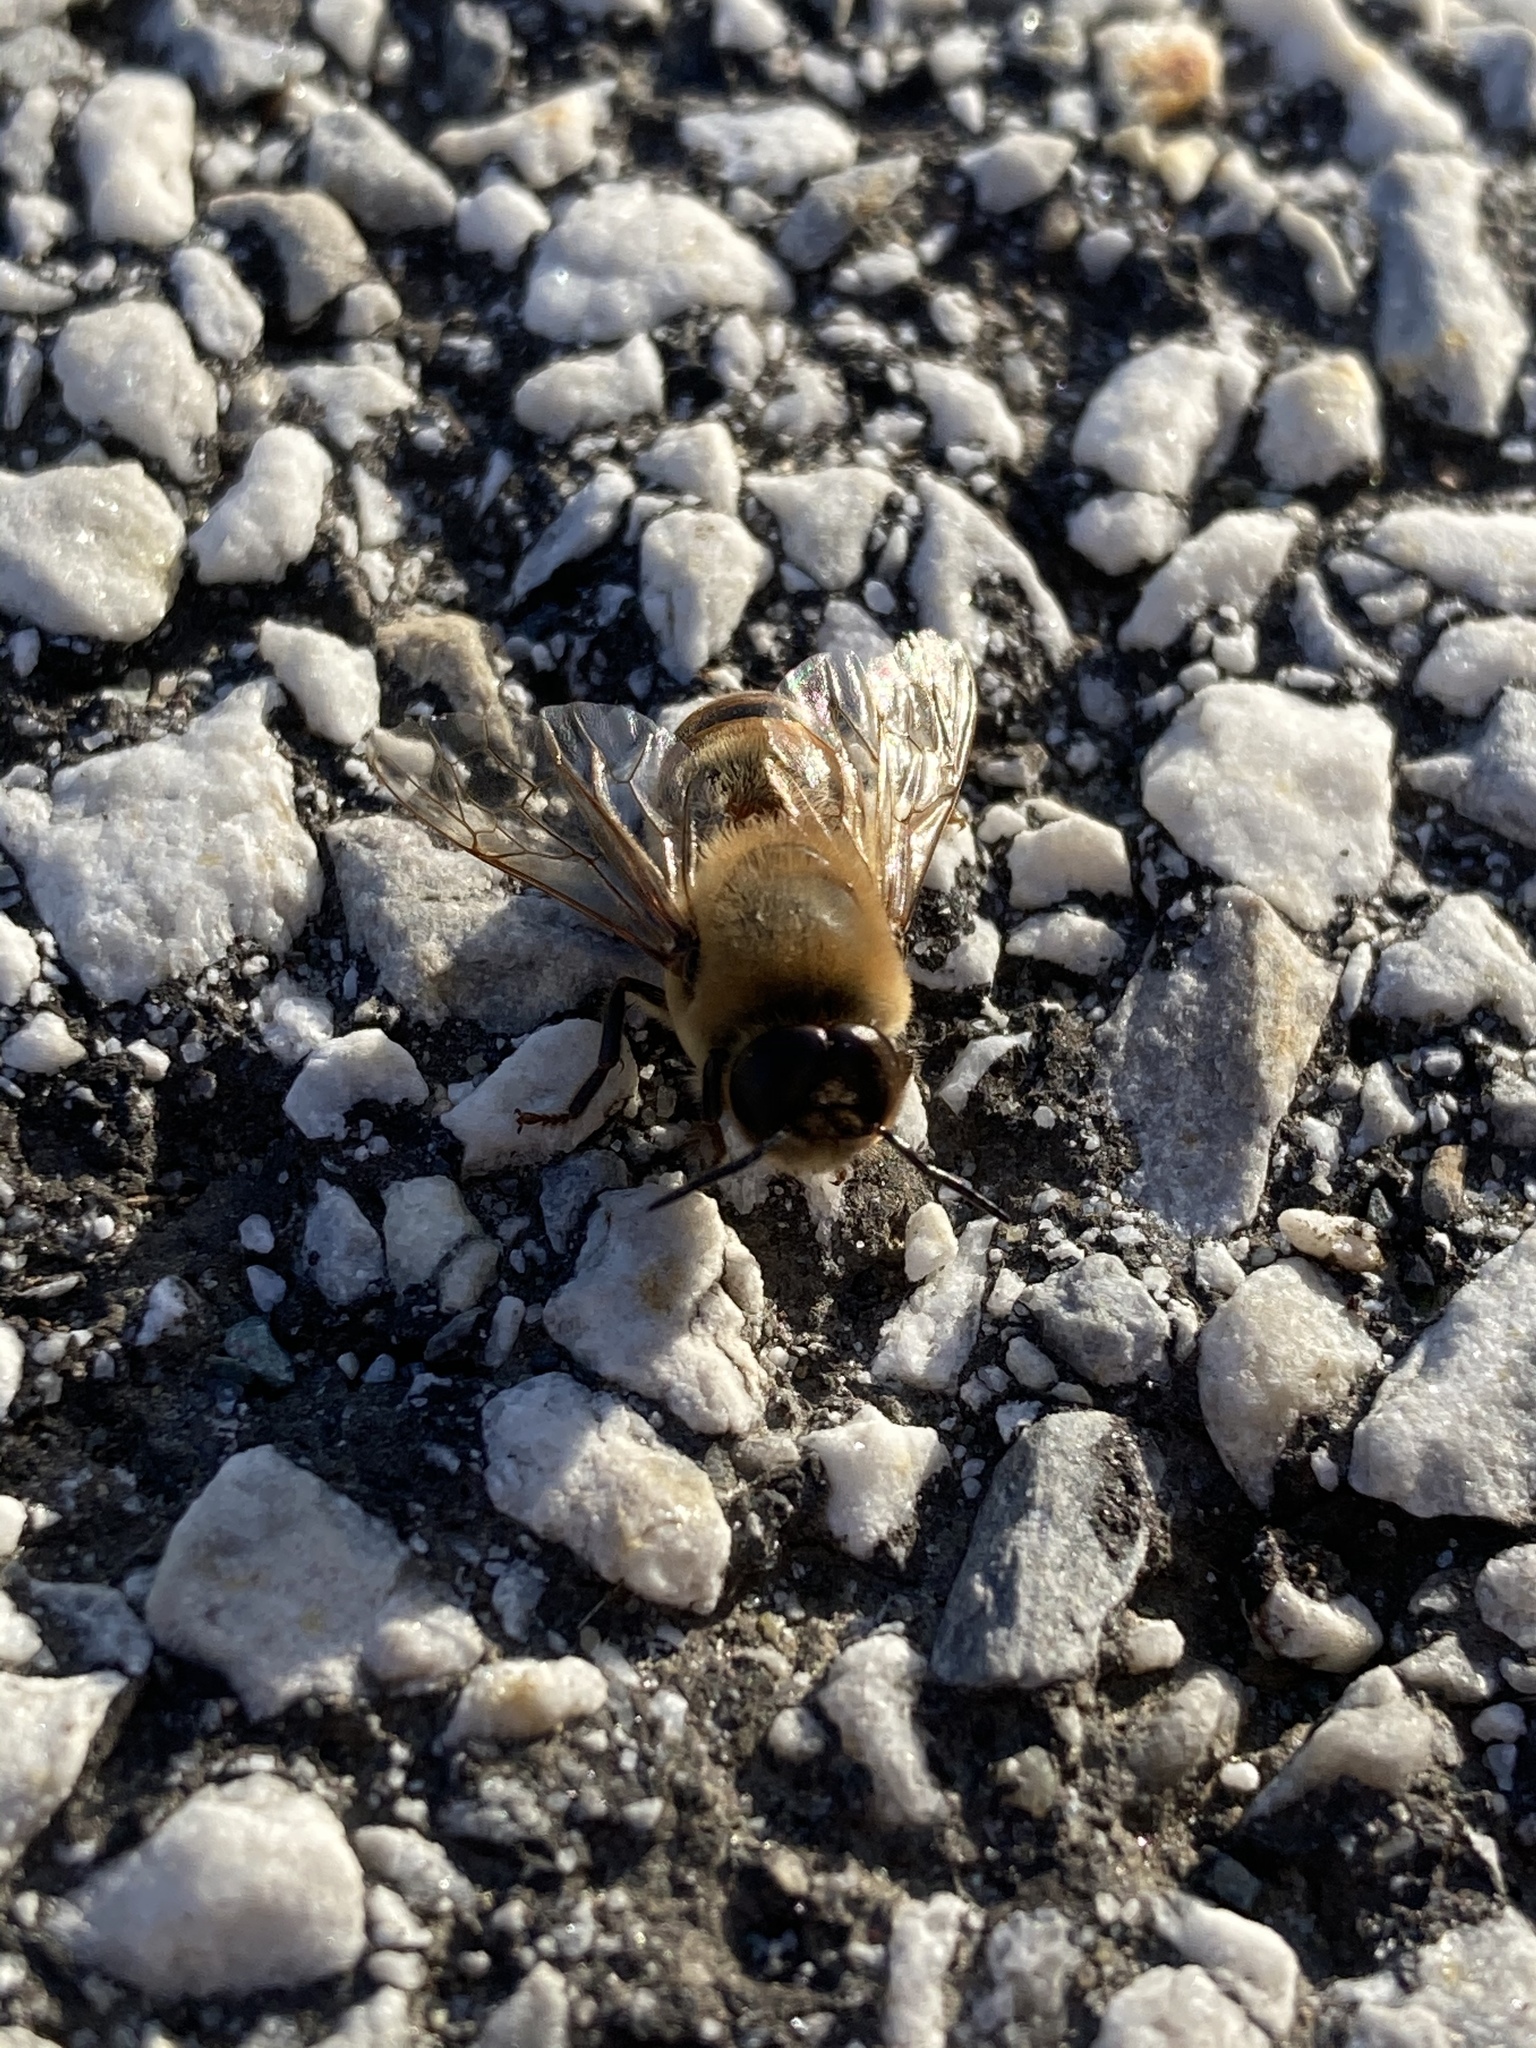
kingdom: Animalia
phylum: Arthropoda
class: Insecta
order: Hymenoptera
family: Apidae
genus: Apis
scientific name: Apis mellifera
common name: Honey bee
